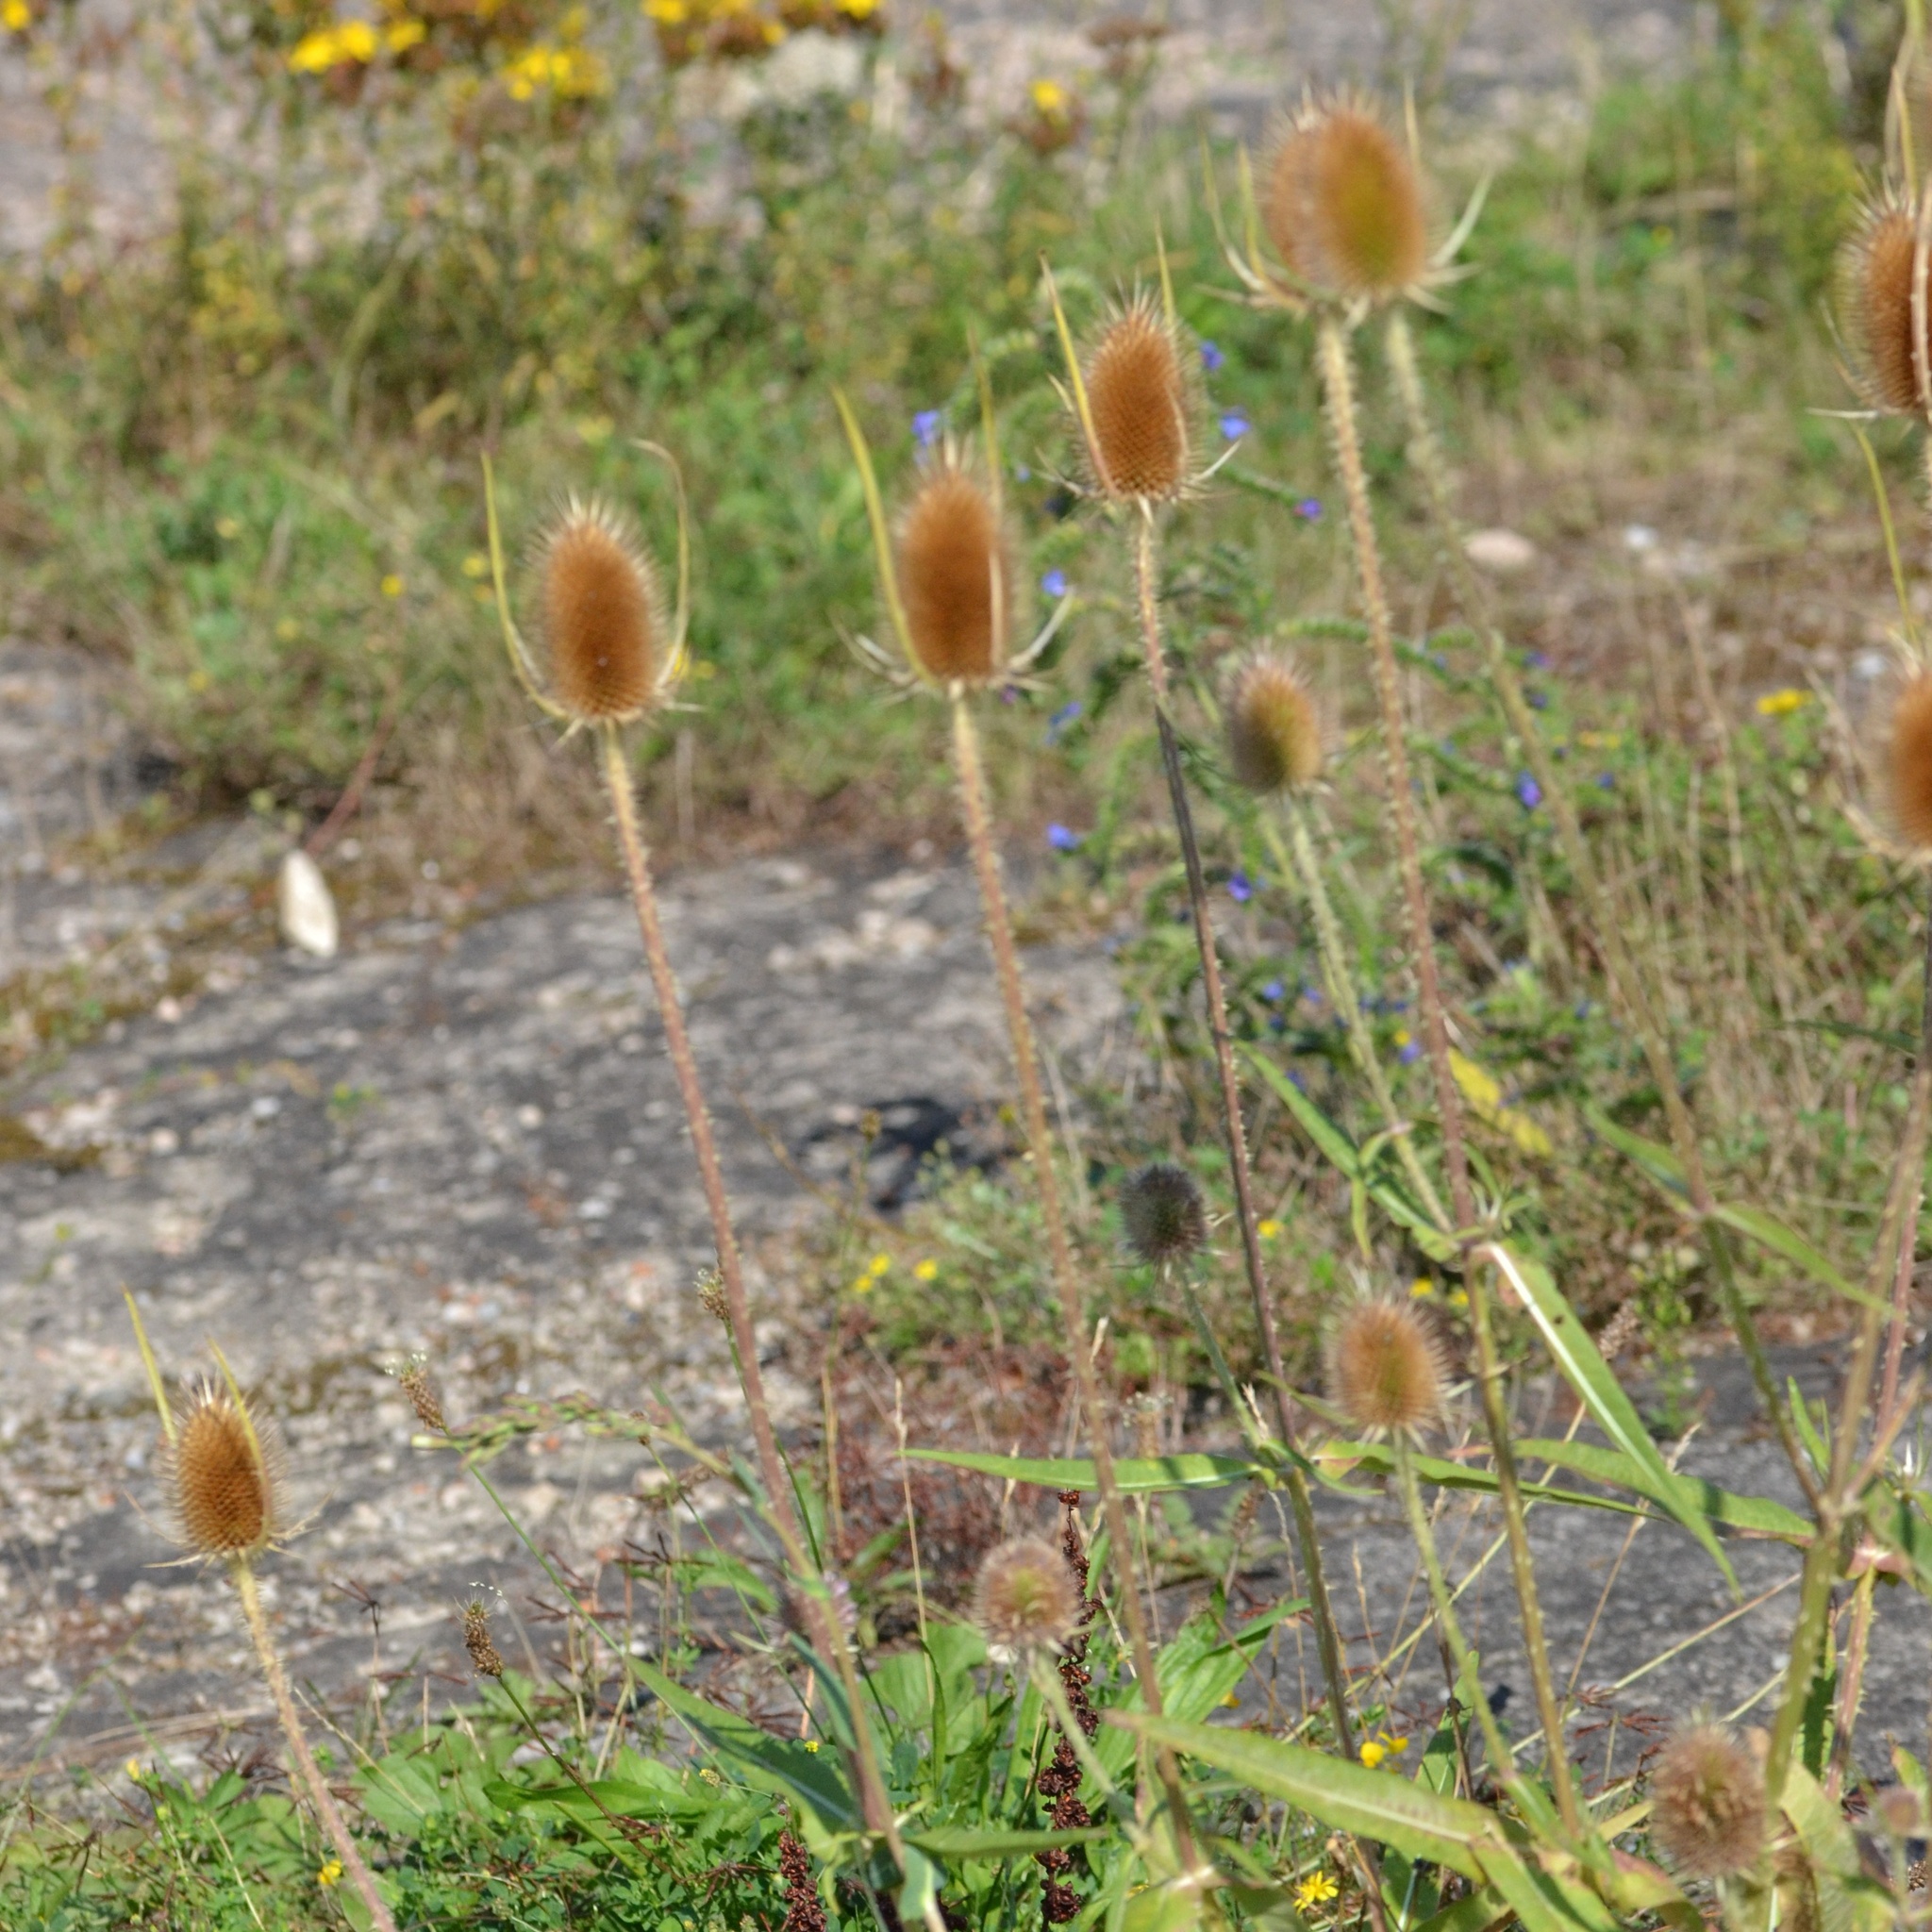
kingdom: Plantae
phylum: Tracheophyta
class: Magnoliopsida
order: Dipsacales
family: Caprifoliaceae
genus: Dipsacus
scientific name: Dipsacus fullonum
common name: Teasel
